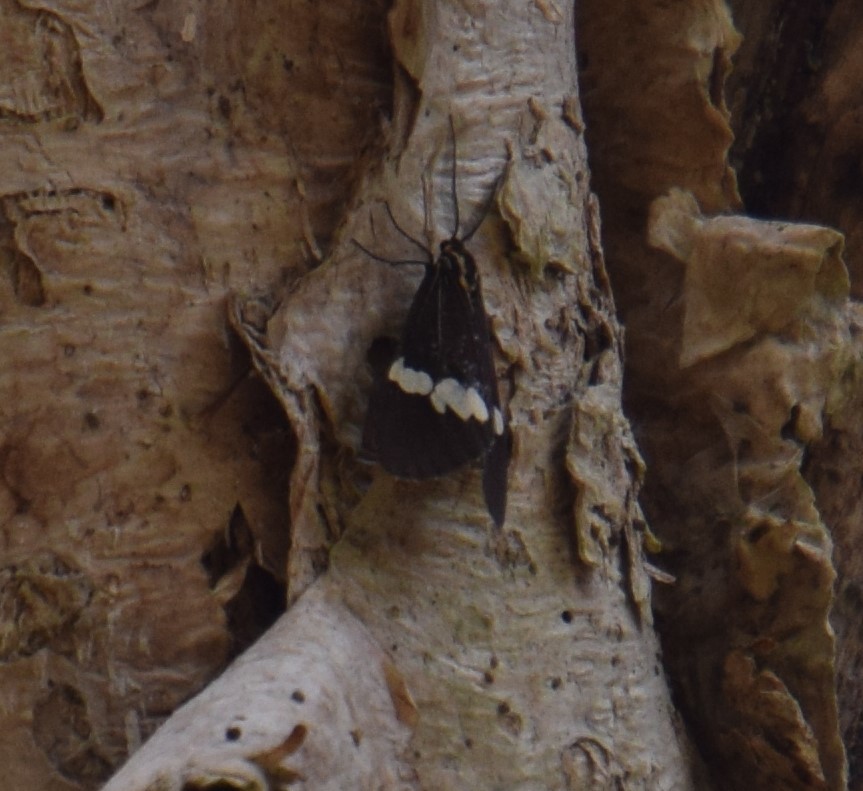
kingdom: Animalia
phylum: Arthropoda
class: Insecta
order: Lepidoptera
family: Erebidae
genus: Nyctemera
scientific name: Nyctemera amicus
